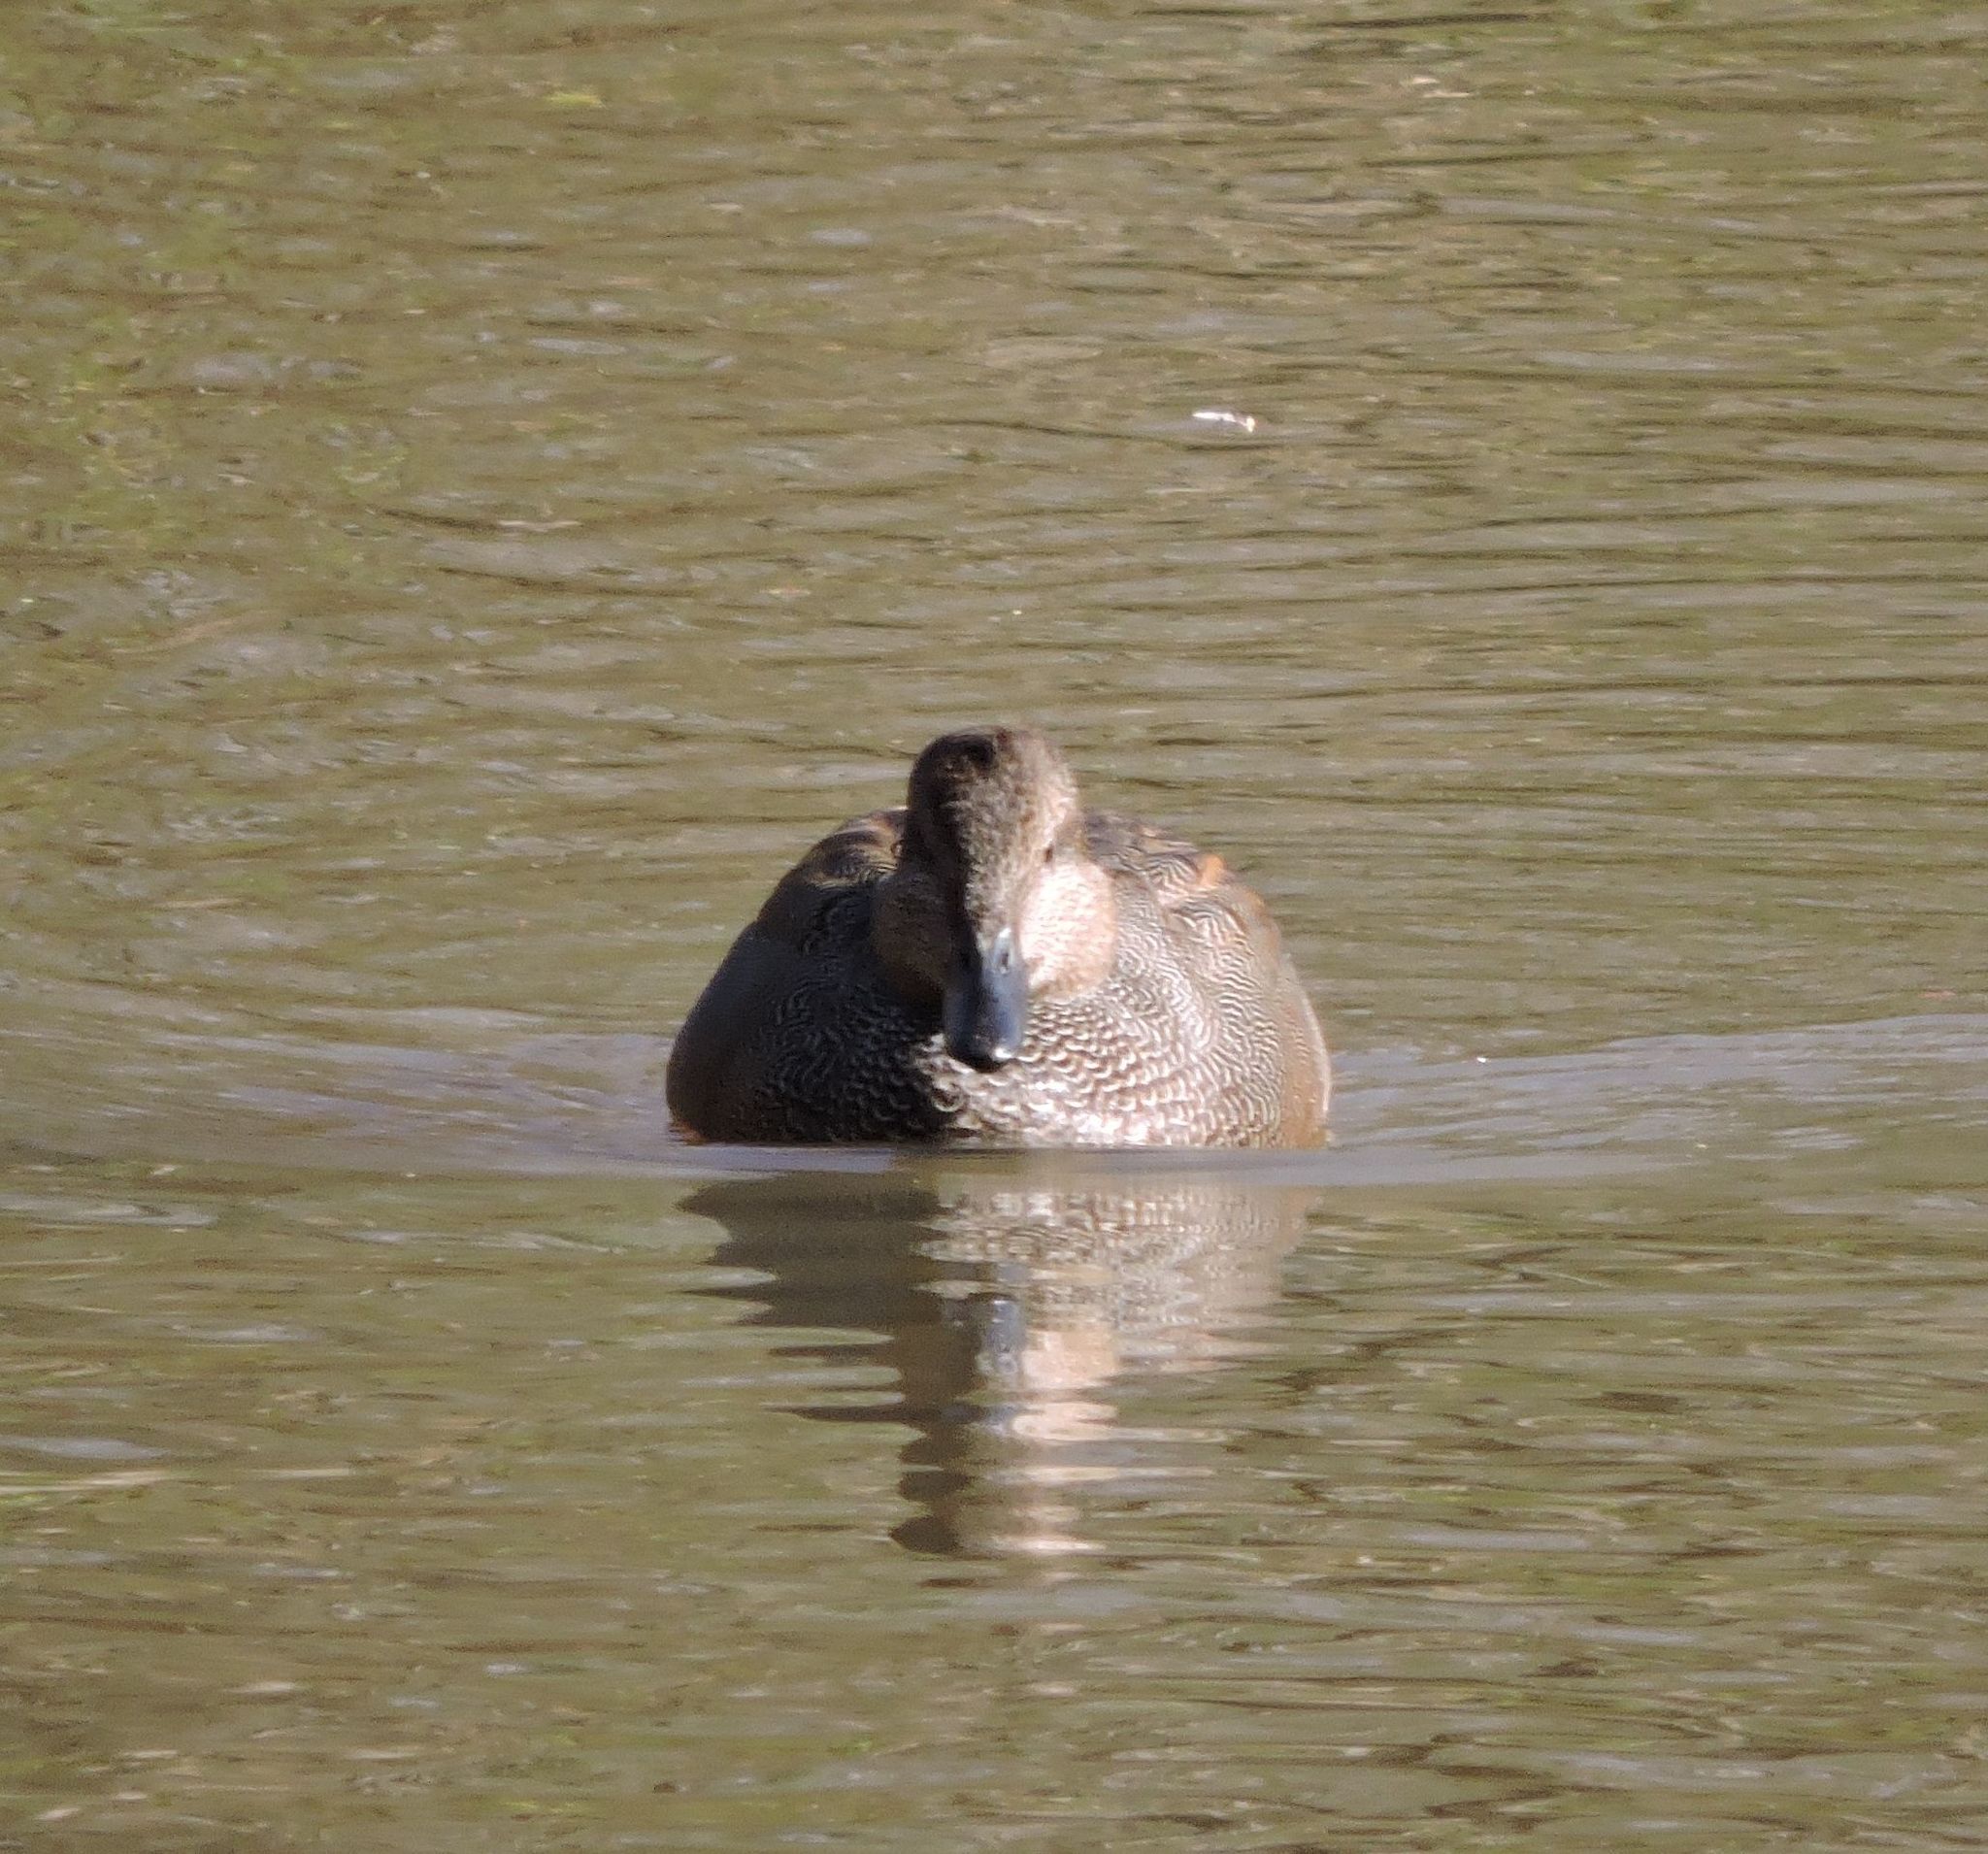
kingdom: Animalia
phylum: Chordata
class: Aves
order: Anseriformes
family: Anatidae
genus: Mareca
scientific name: Mareca strepera
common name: Gadwall
